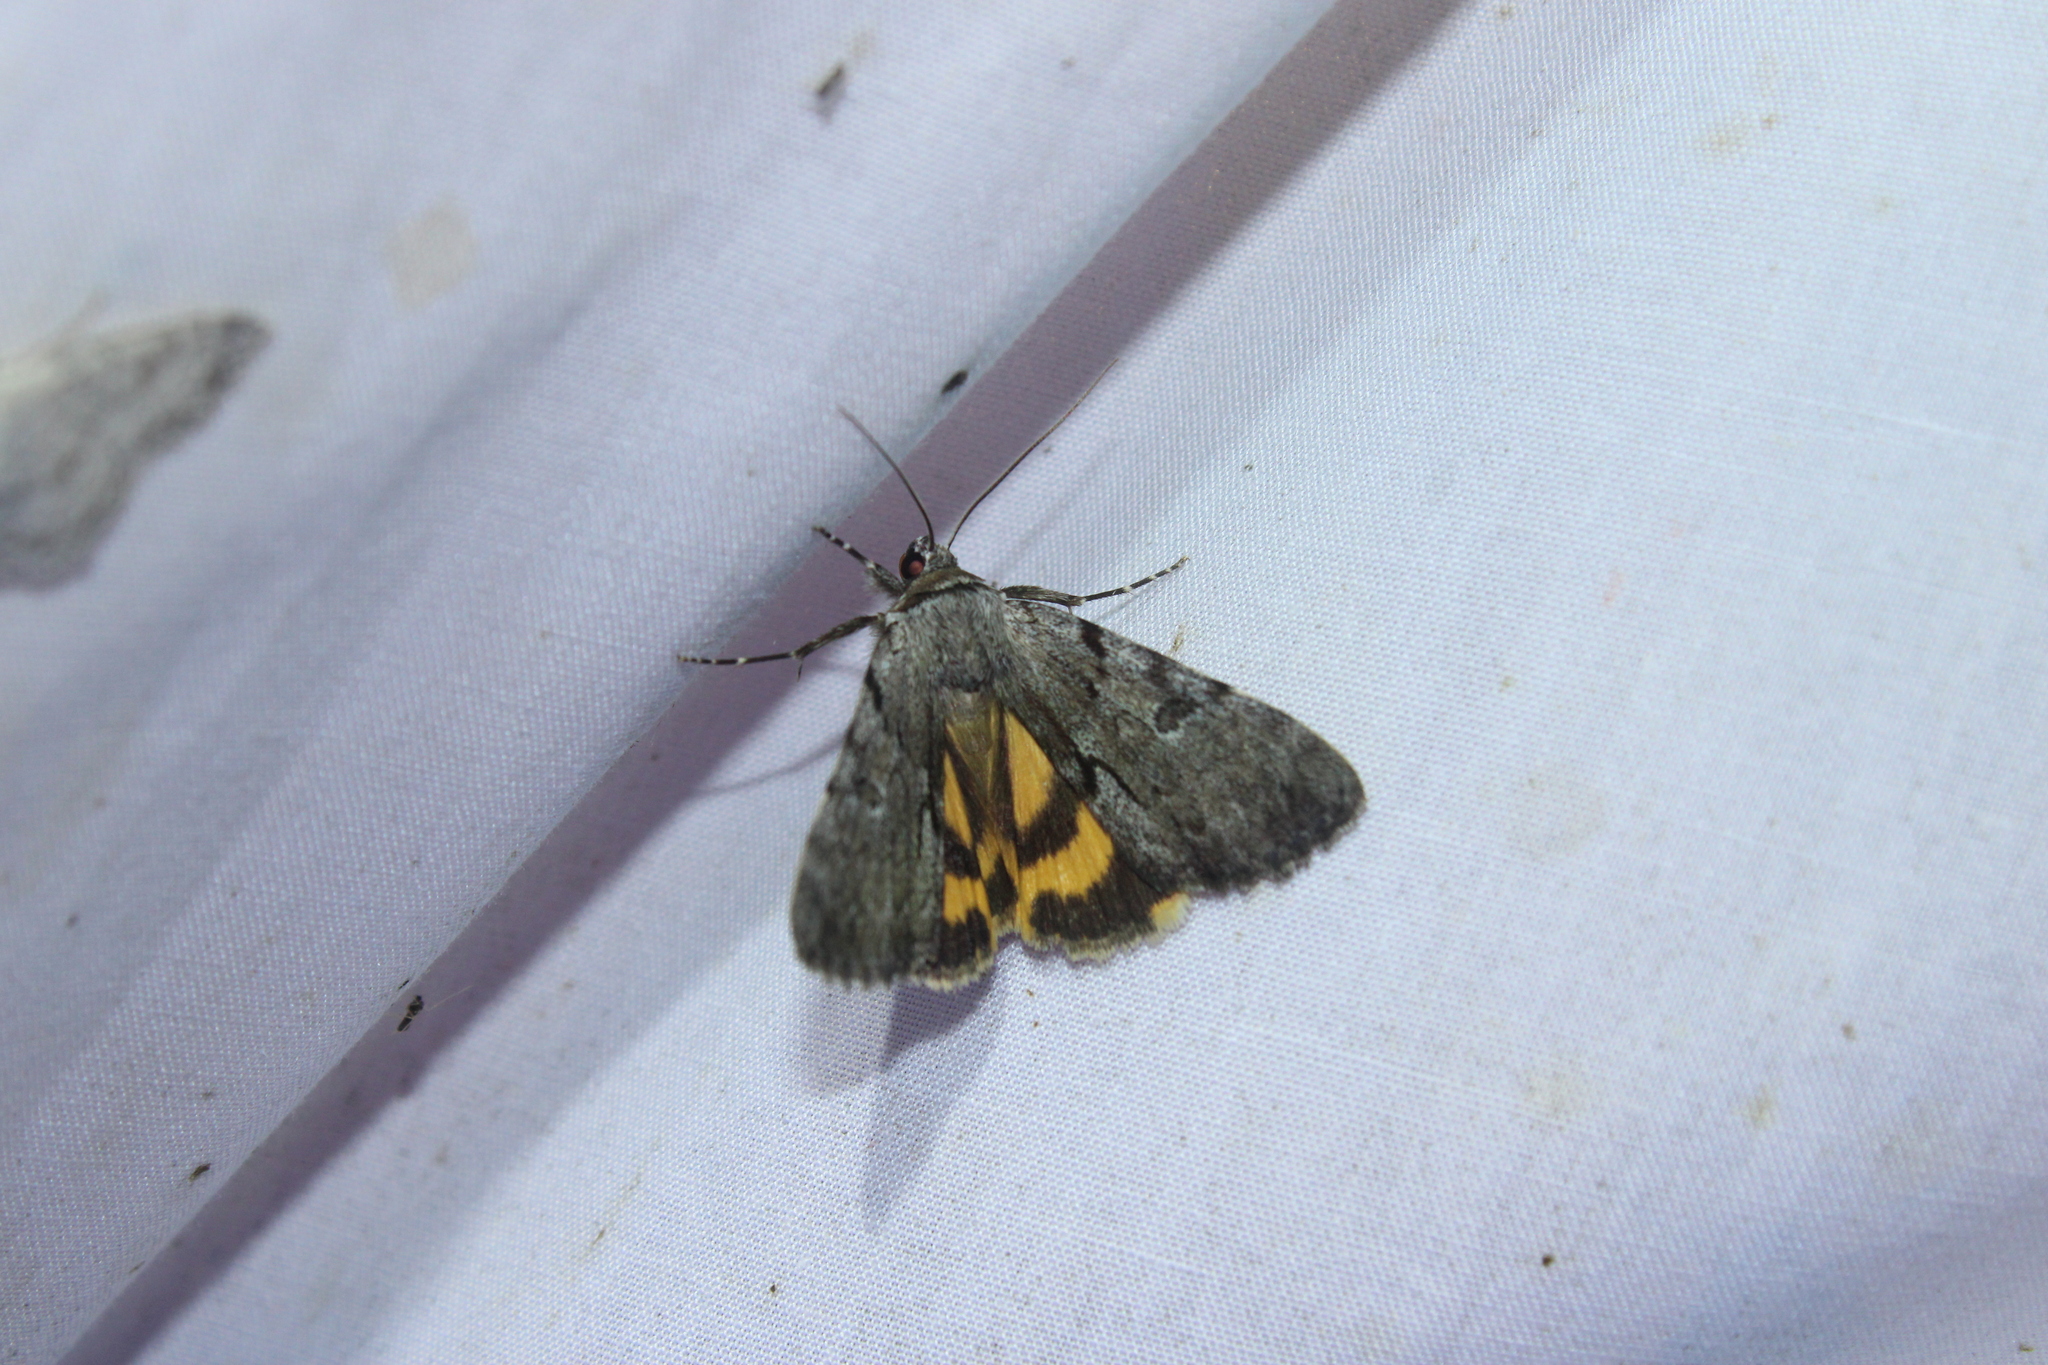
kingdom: Animalia
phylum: Arthropoda
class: Insecta
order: Lepidoptera
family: Erebidae
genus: Catocala
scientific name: Catocala sordida
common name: Sordid underwing
